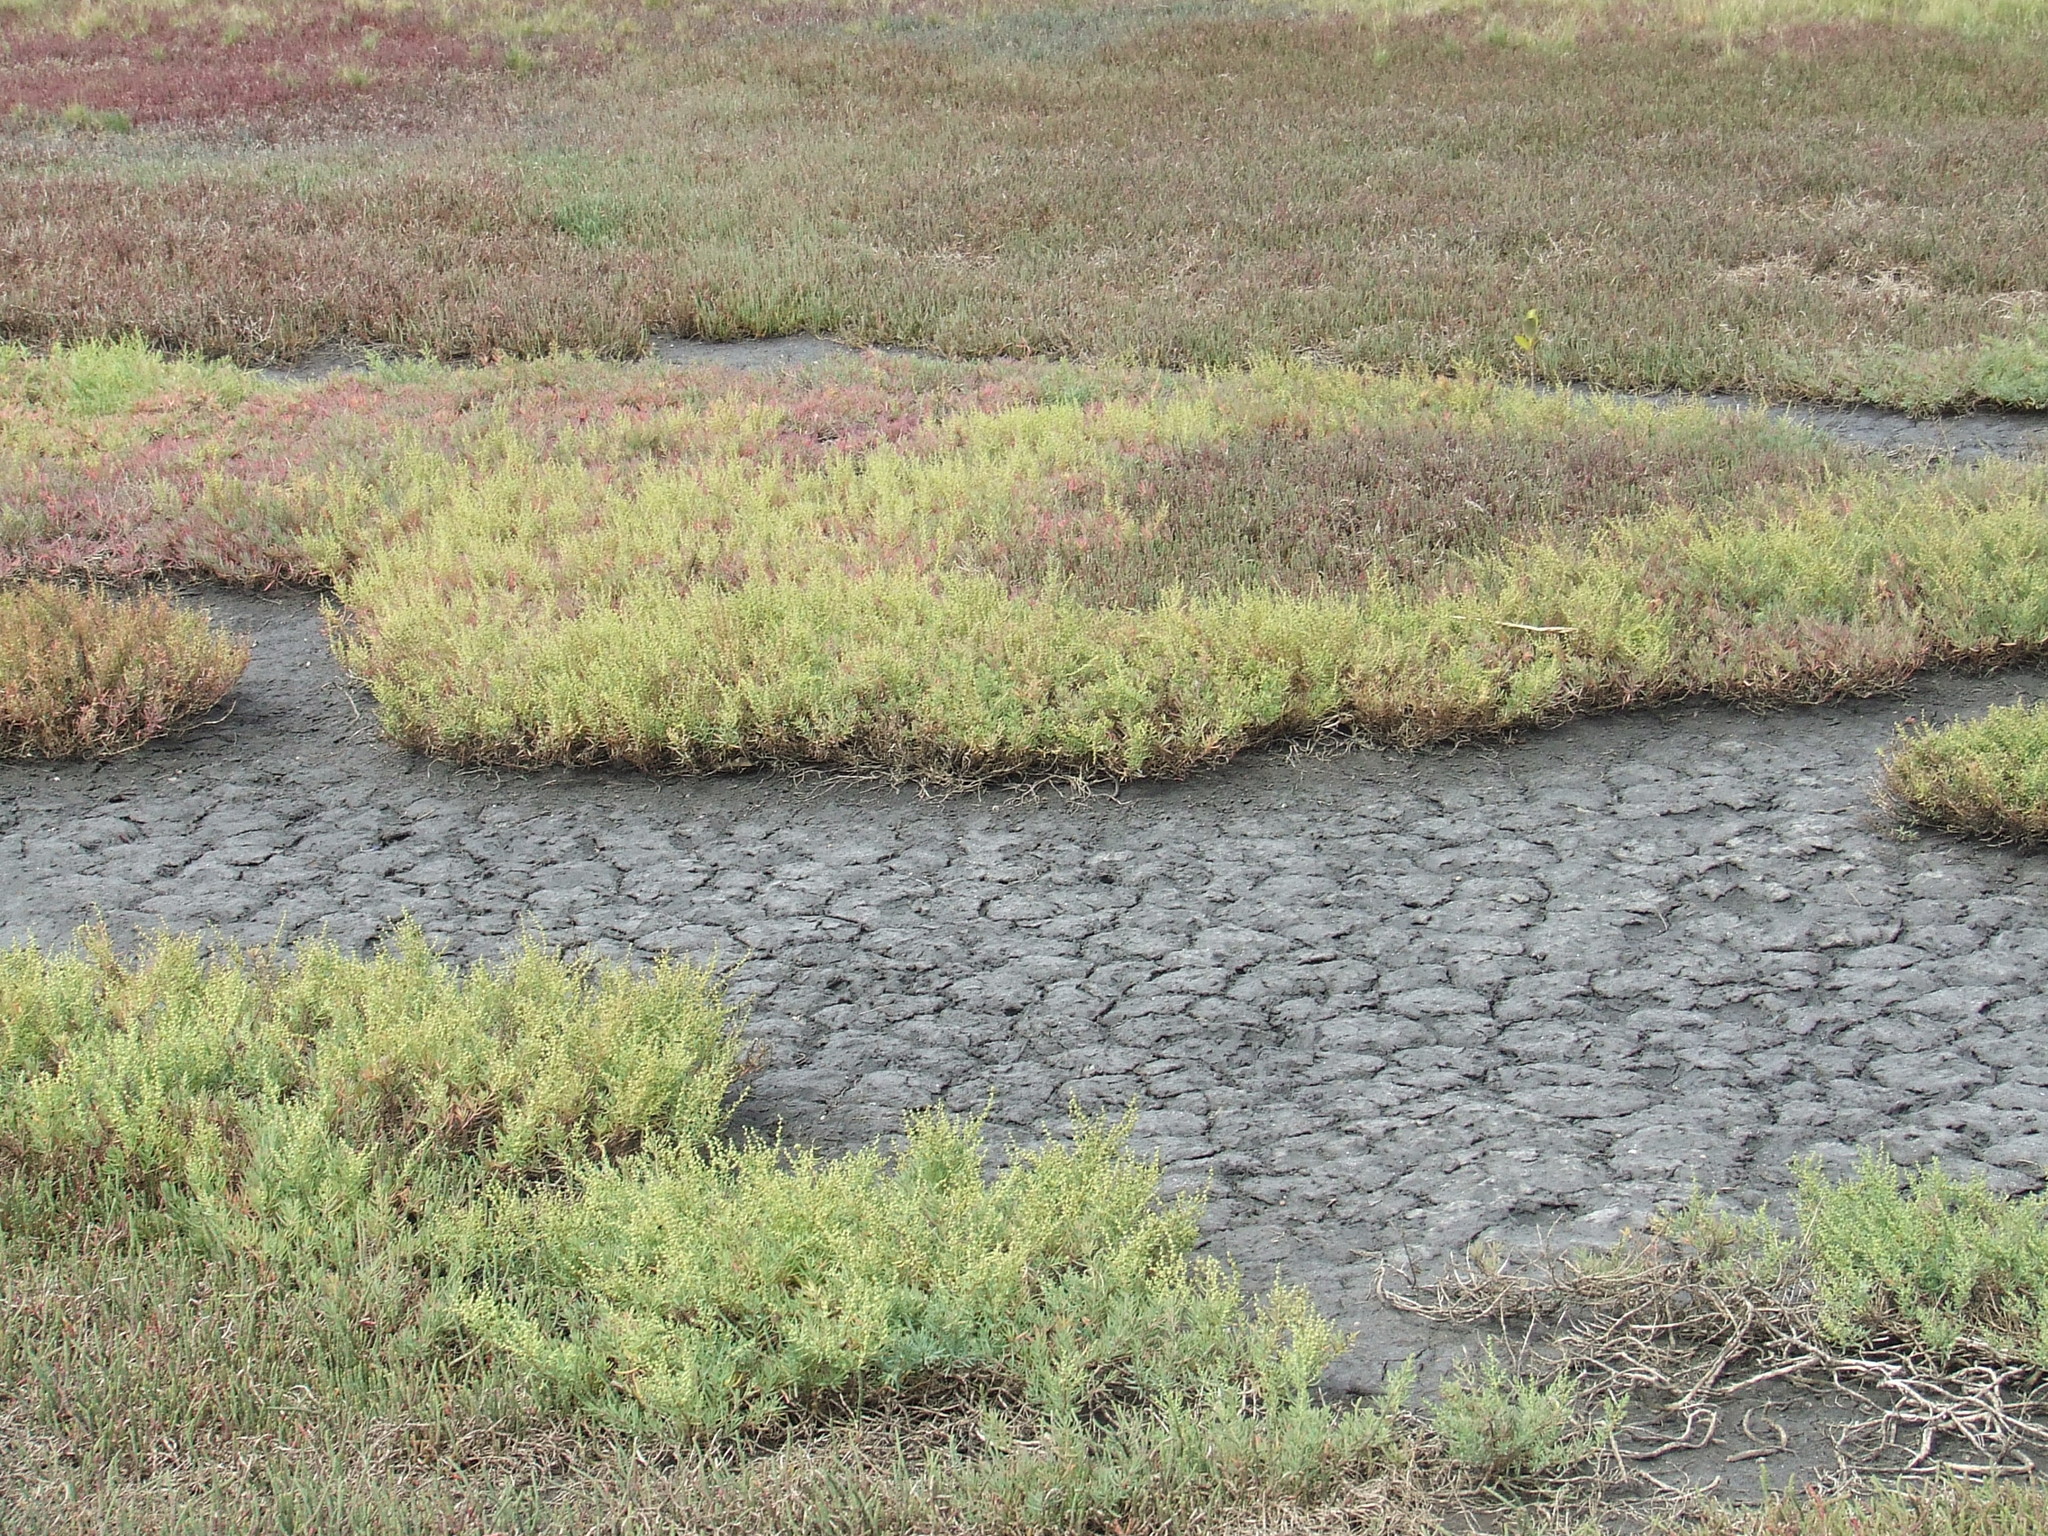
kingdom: Plantae
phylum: Tracheophyta
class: Magnoliopsida
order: Caryophyllales
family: Amaranthaceae
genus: Suaeda
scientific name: Suaeda australis
